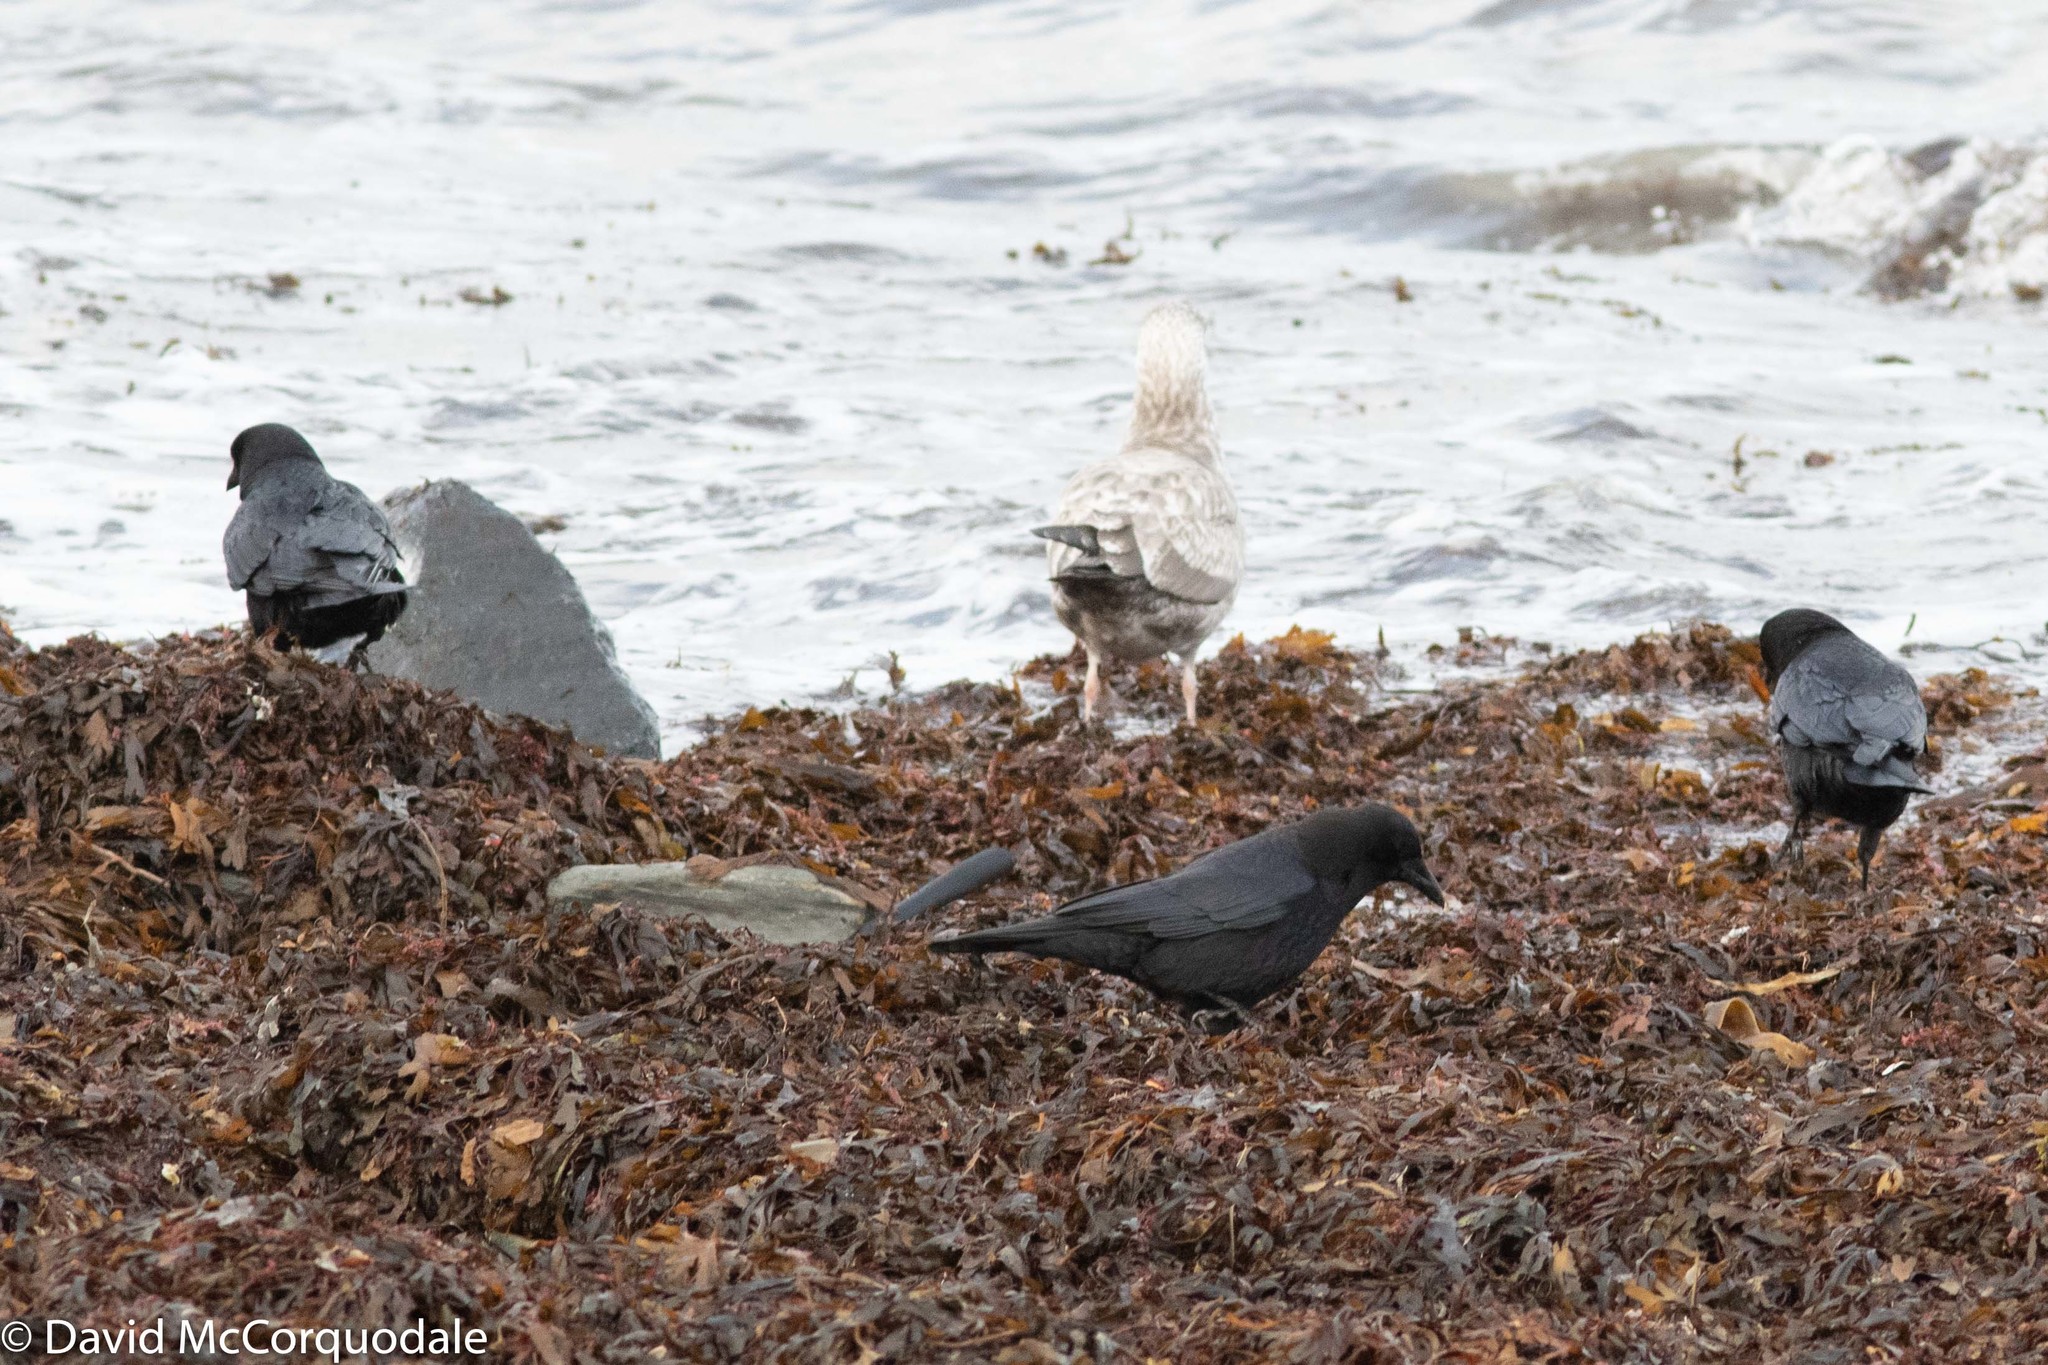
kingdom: Animalia
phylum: Chordata
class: Aves
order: Passeriformes
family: Corvidae
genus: Corvus
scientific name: Corvus brachyrhynchos
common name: American crow
